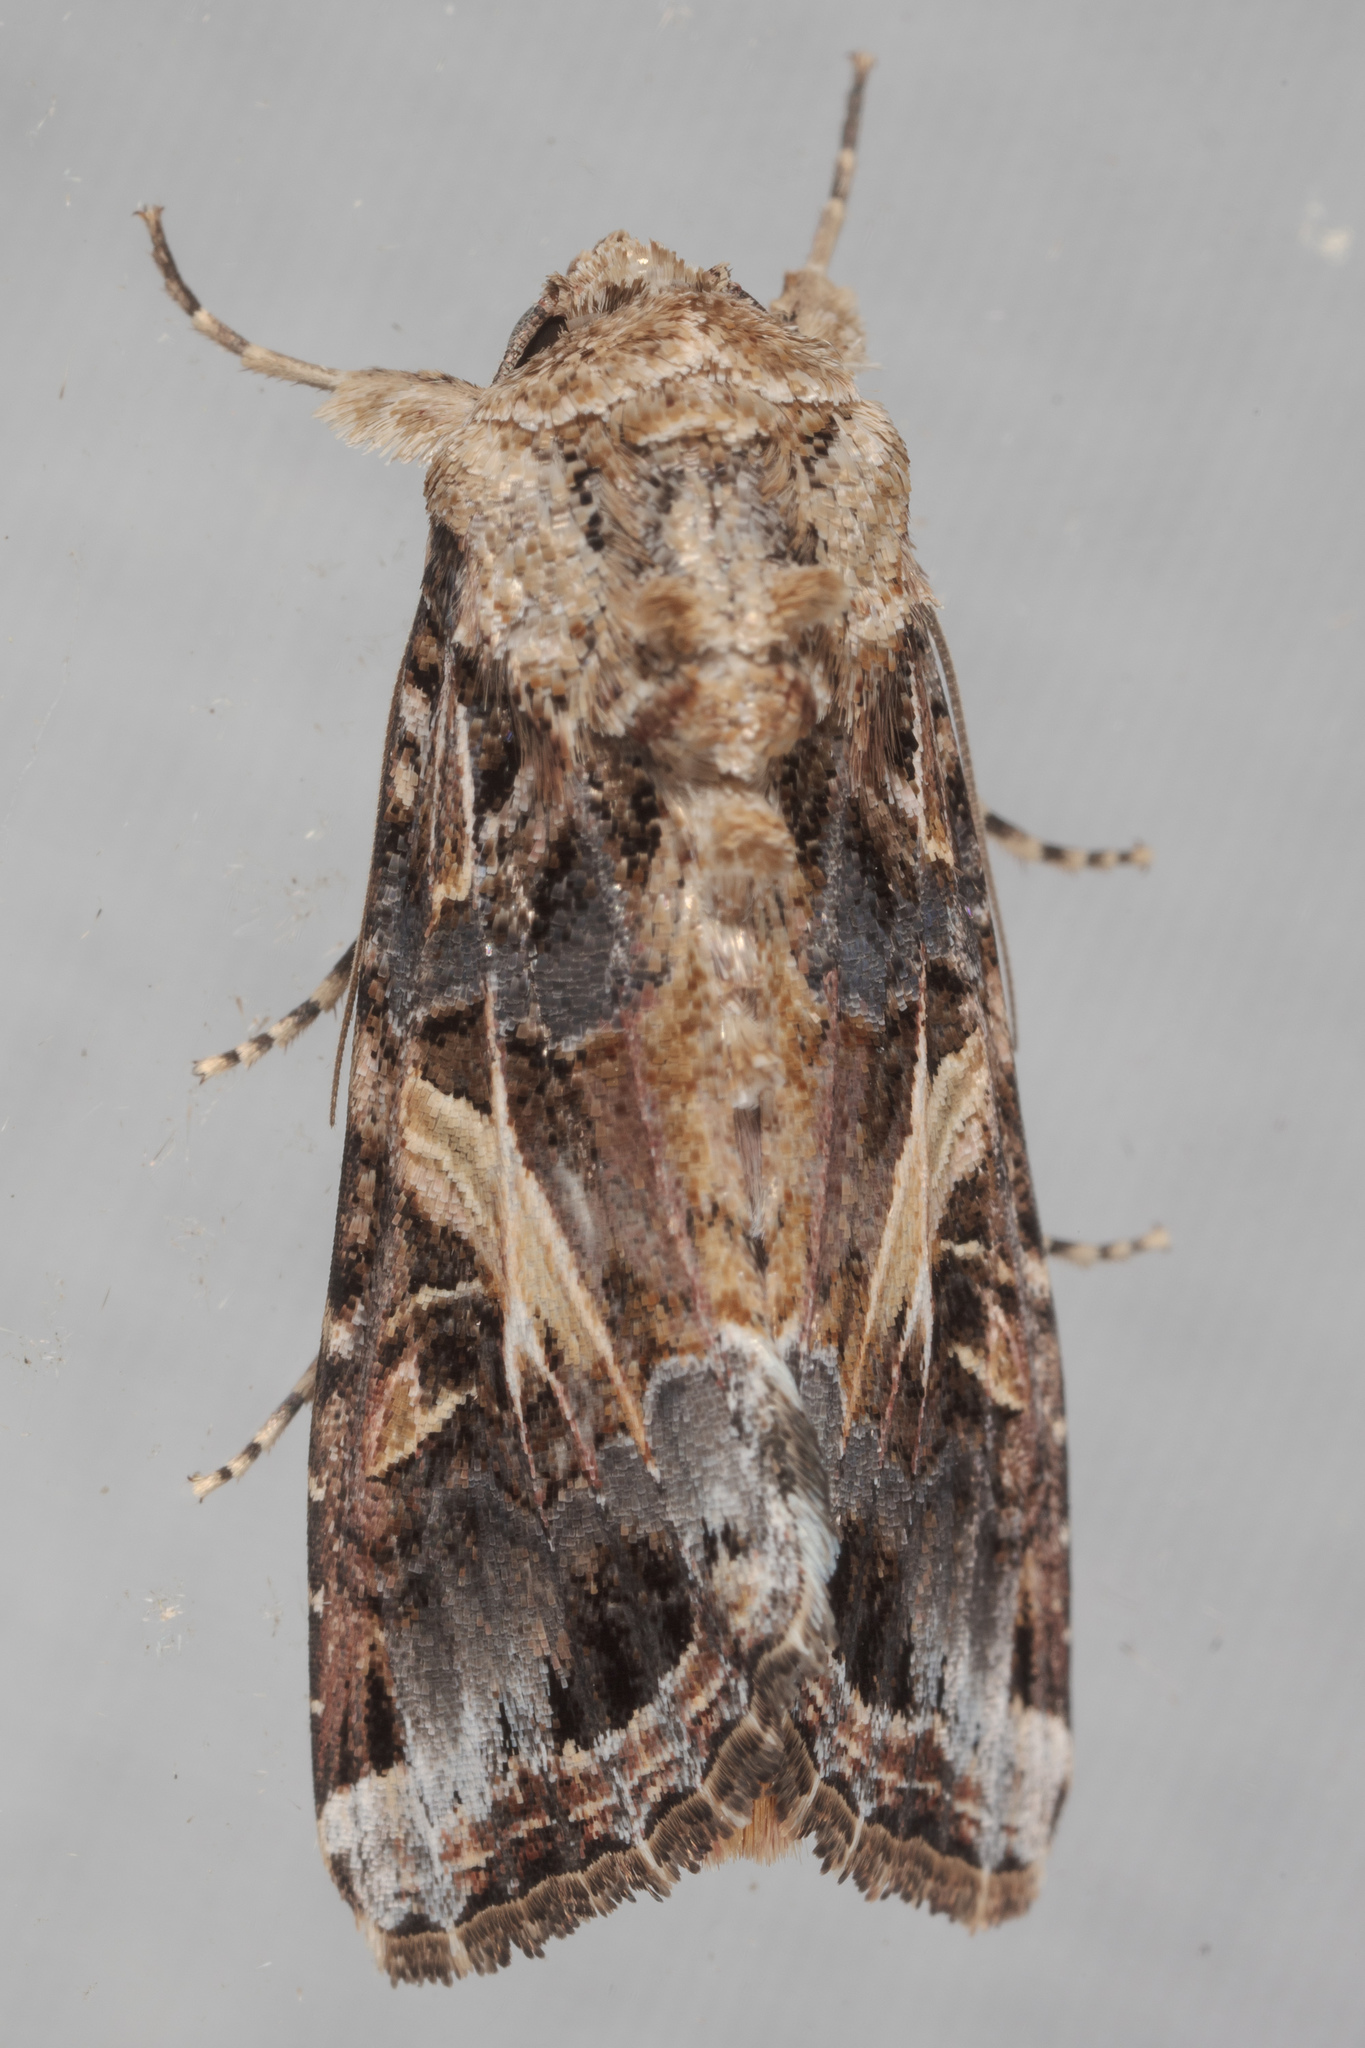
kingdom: Animalia
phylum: Arthropoda
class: Insecta
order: Lepidoptera
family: Noctuidae
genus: Spodoptera
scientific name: Spodoptera ornithogalli
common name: Yellow-striped armyworm
